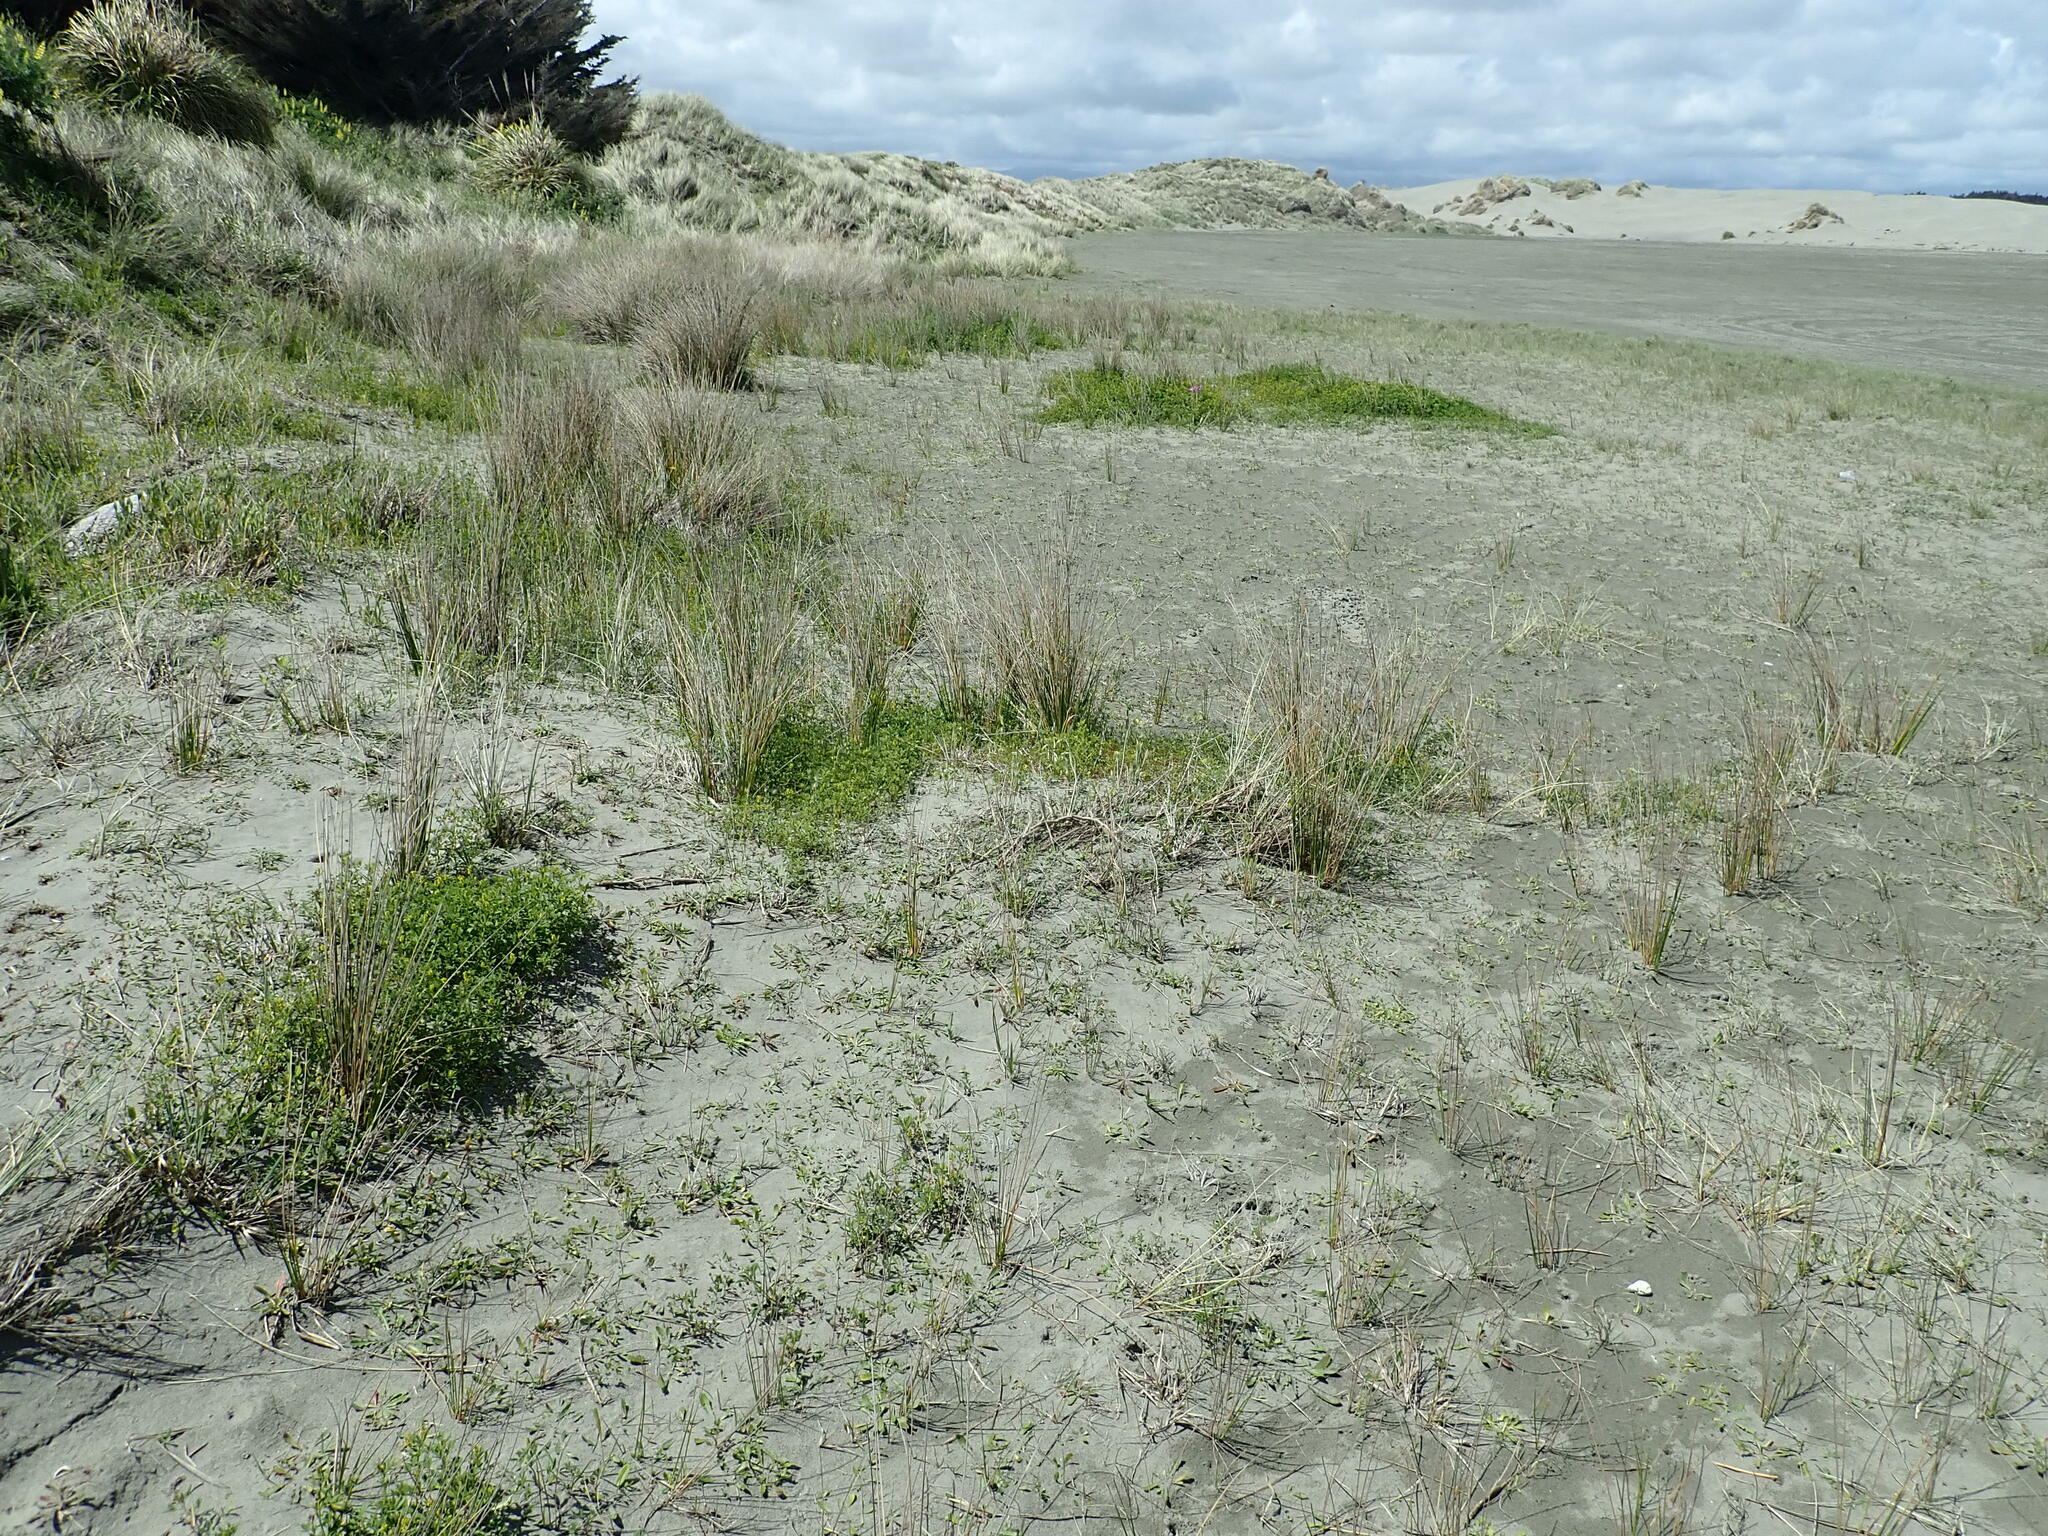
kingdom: Plantae
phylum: Tracheophyta
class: Magnoliopsida
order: Fabales
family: Fabaceae
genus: Melilotus
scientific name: Melilotus indicus
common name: Small melilot
